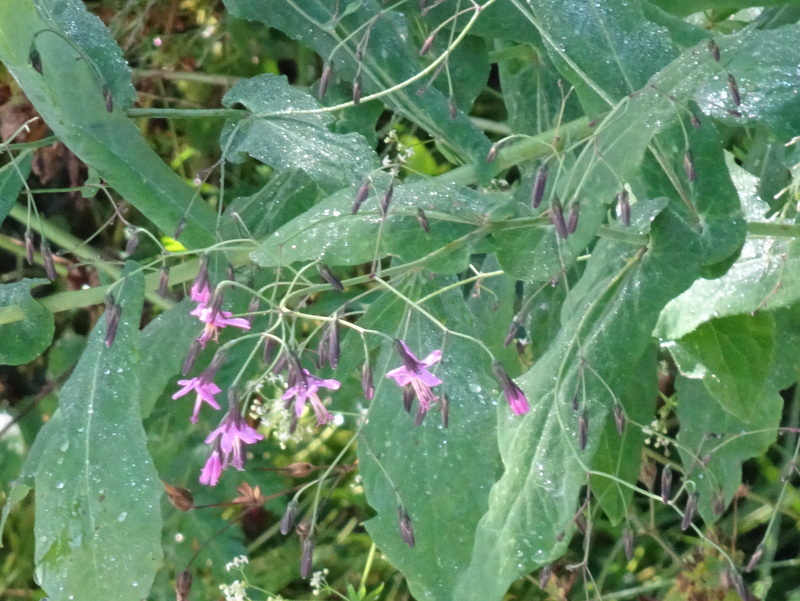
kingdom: Plantae
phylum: Tracheophyta
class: Magnoliopsida
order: Asterales
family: Asteraceae
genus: Prenanthes
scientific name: Prenanthes purpurea
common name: Purple lettuce
